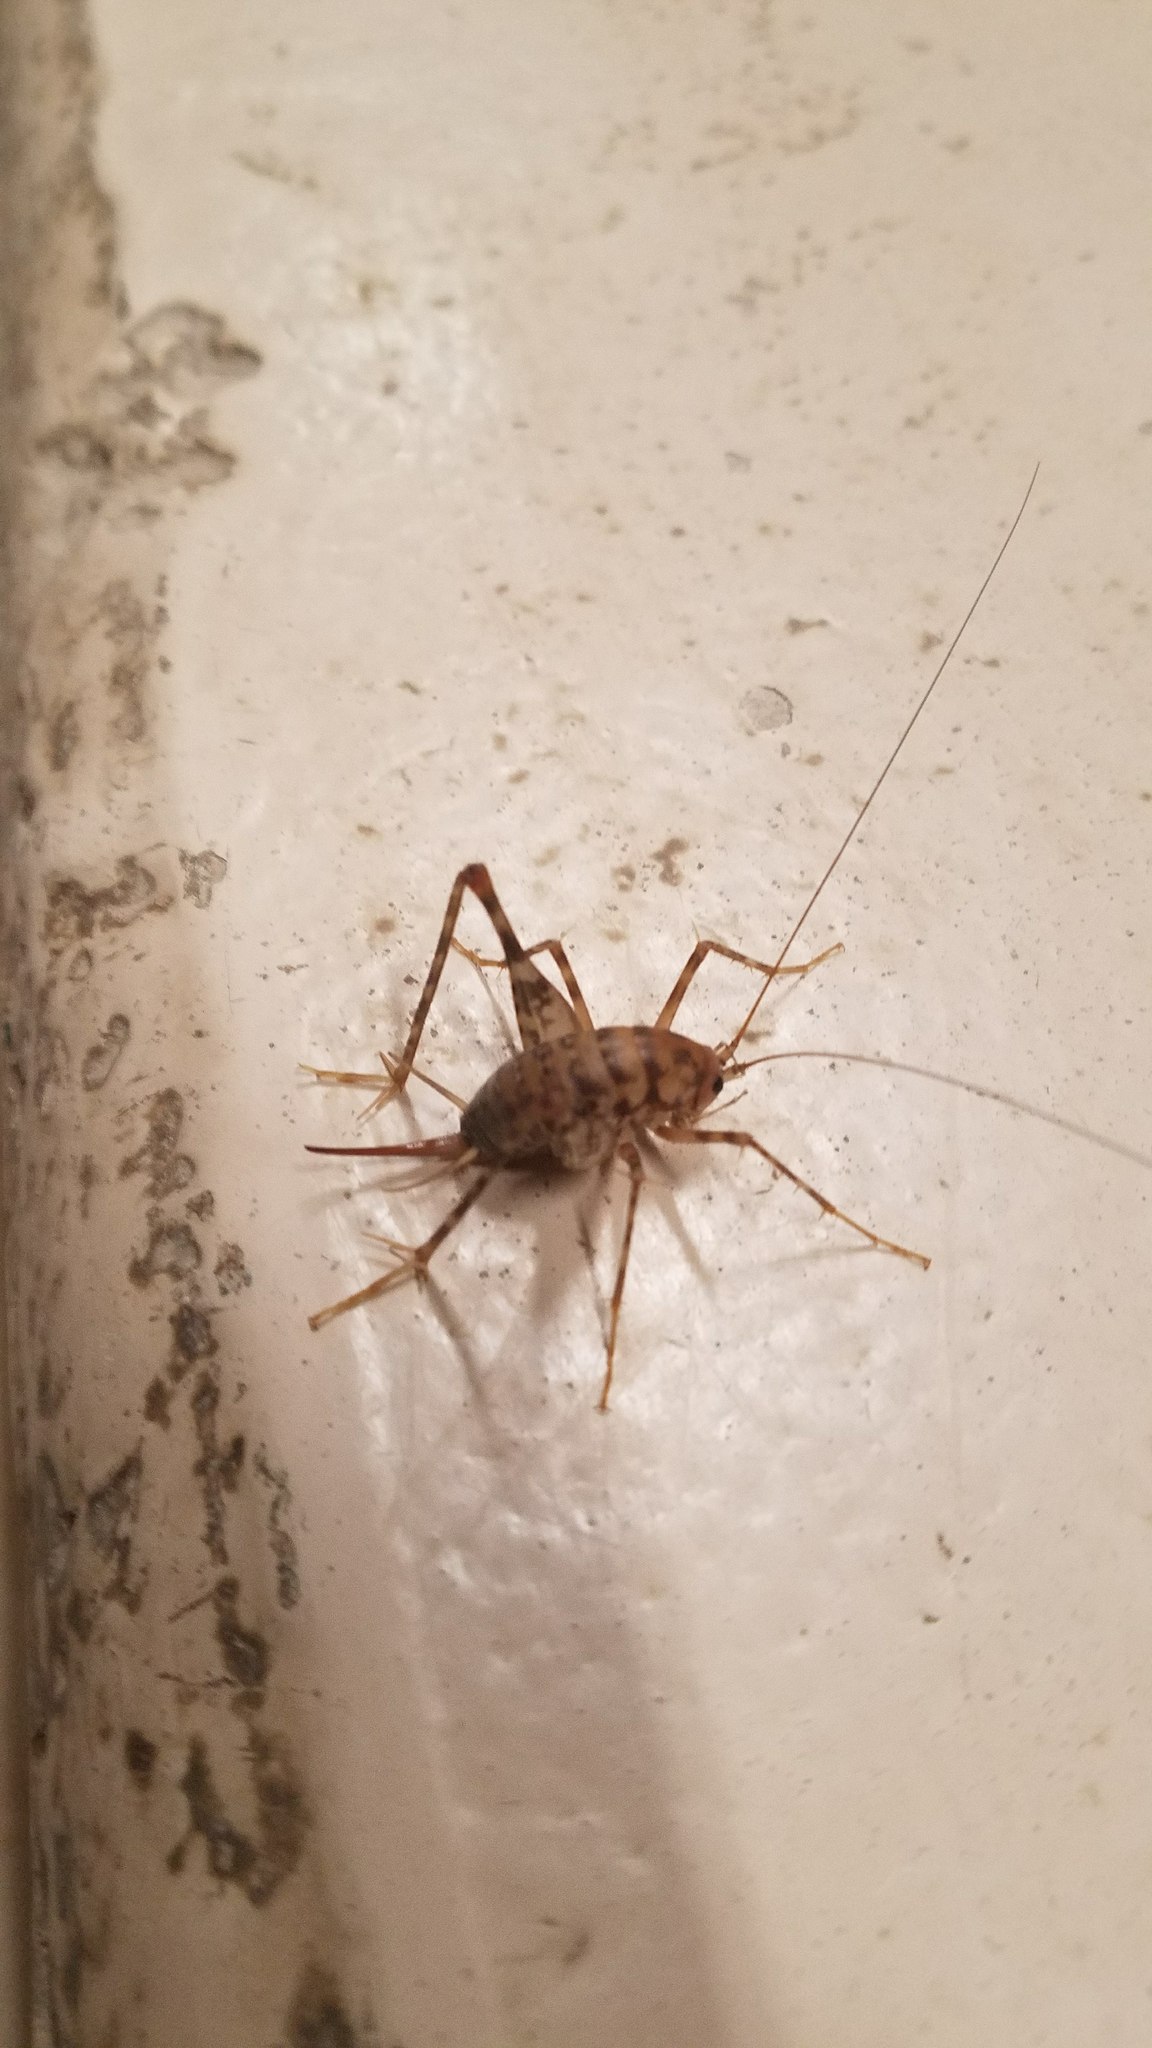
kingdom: Animalia
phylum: Arthropoda
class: Insecta
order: Orthoptera
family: Rhaphidophoridae
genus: Tachycines
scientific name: Tachycines asynamorus
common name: Greenhouse camel cricket
